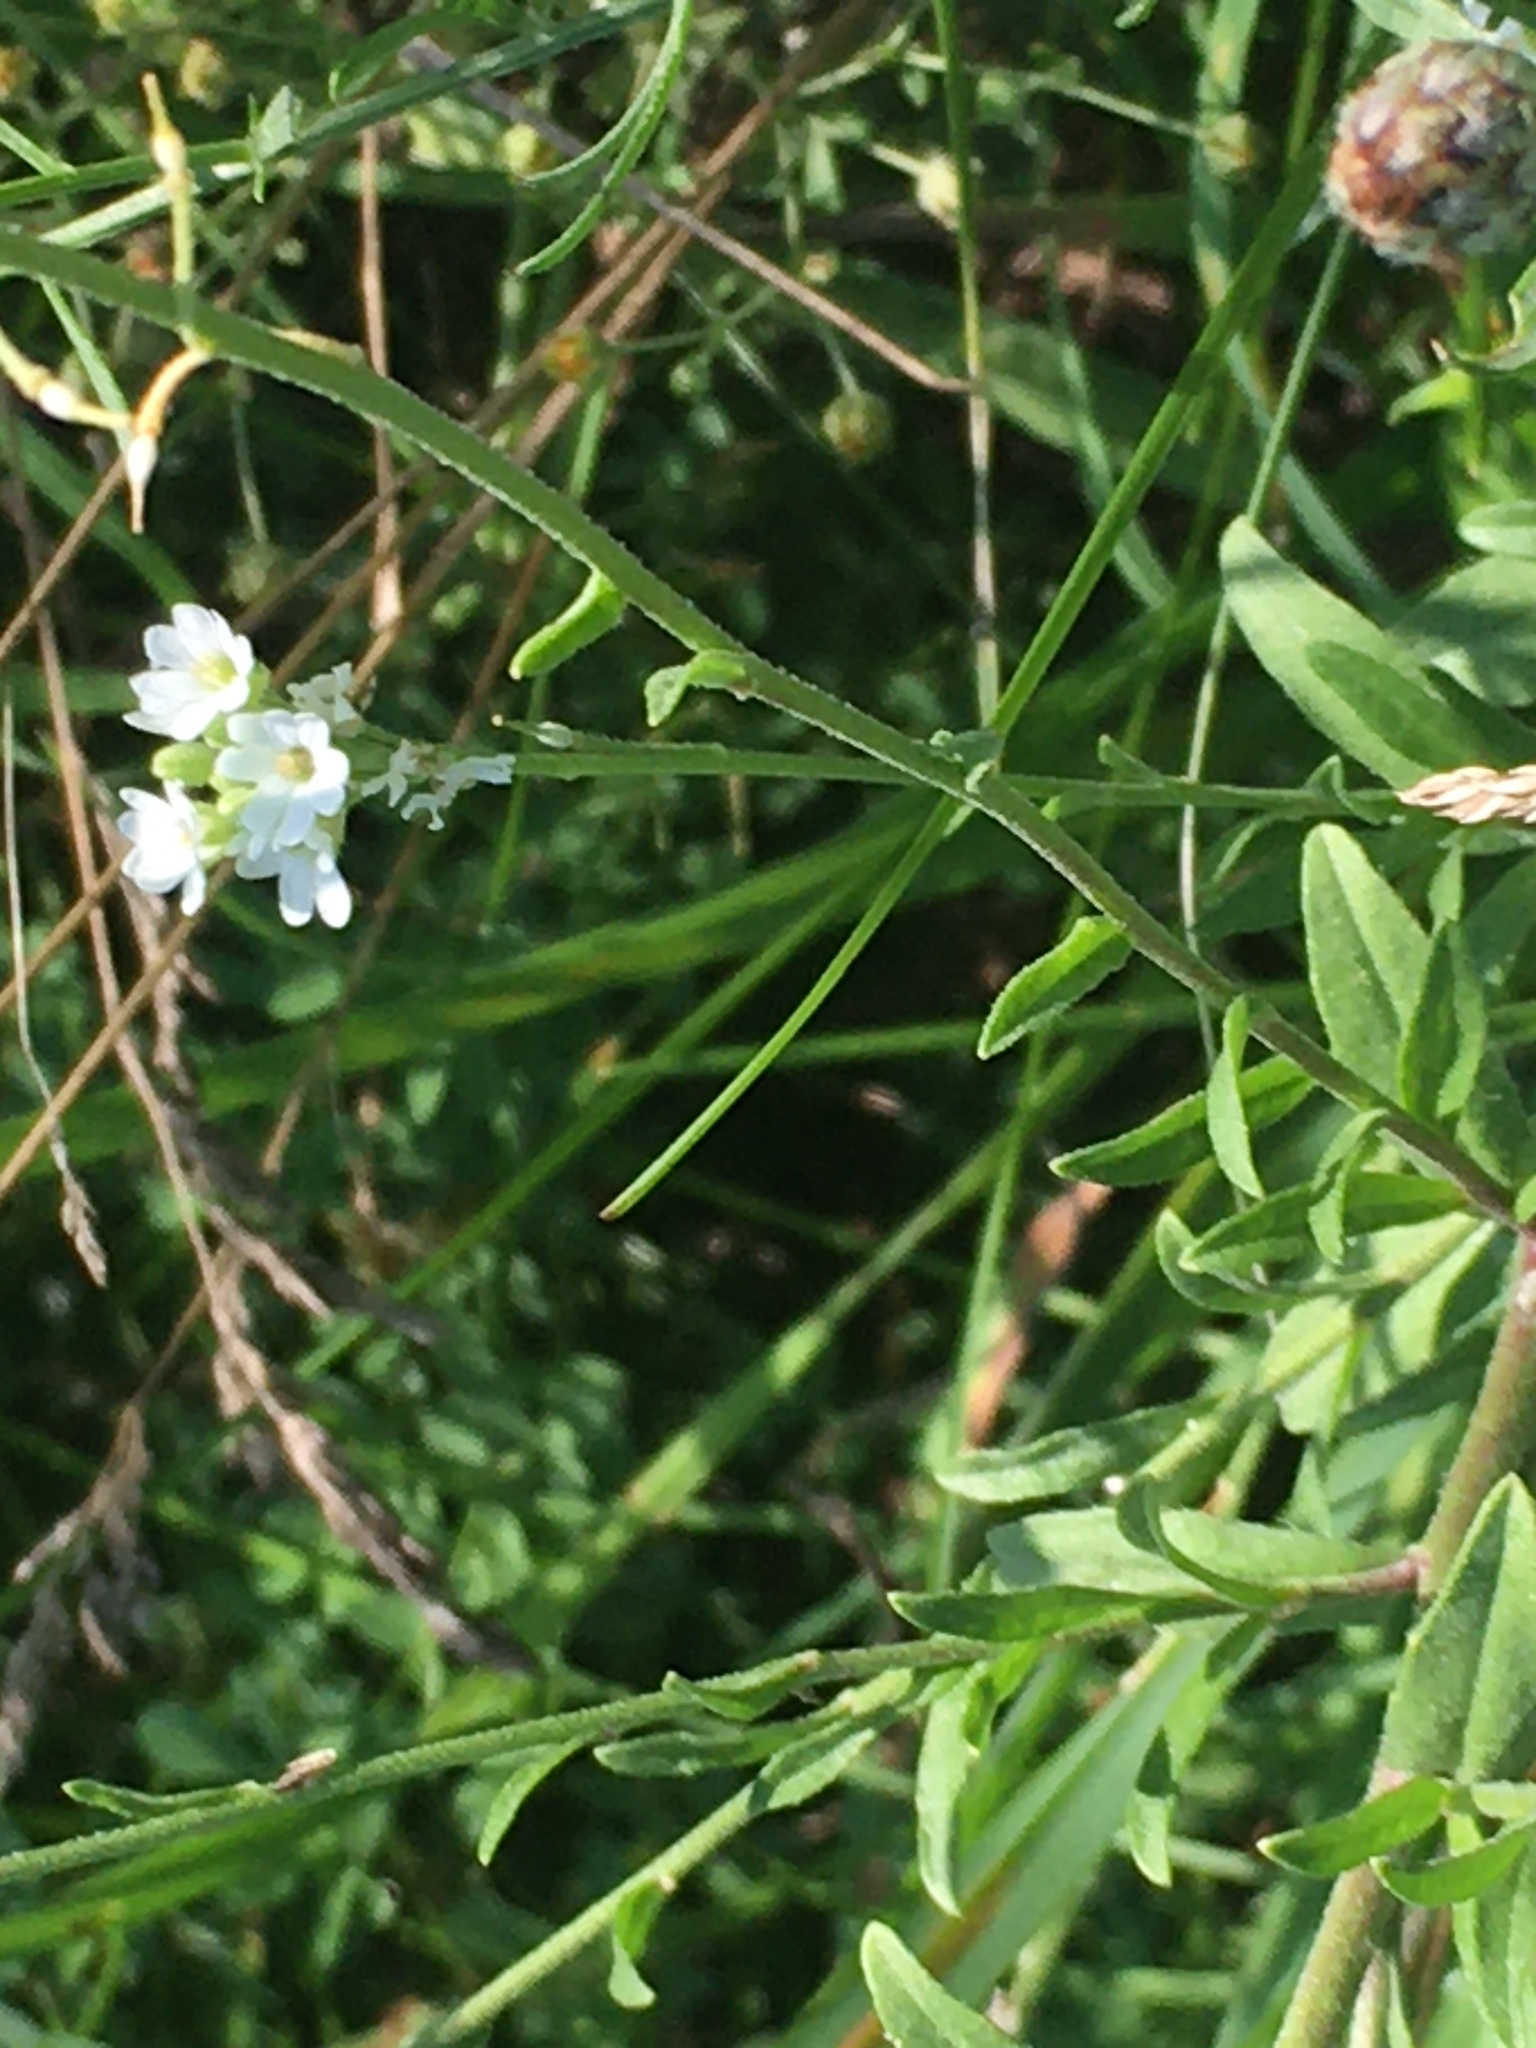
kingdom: Plantae
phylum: Tracheophyta
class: Magnoliopsida
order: Brassicales
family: Brassicaceae
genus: Berteroa
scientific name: Berteroa incana
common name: Hoary alison
